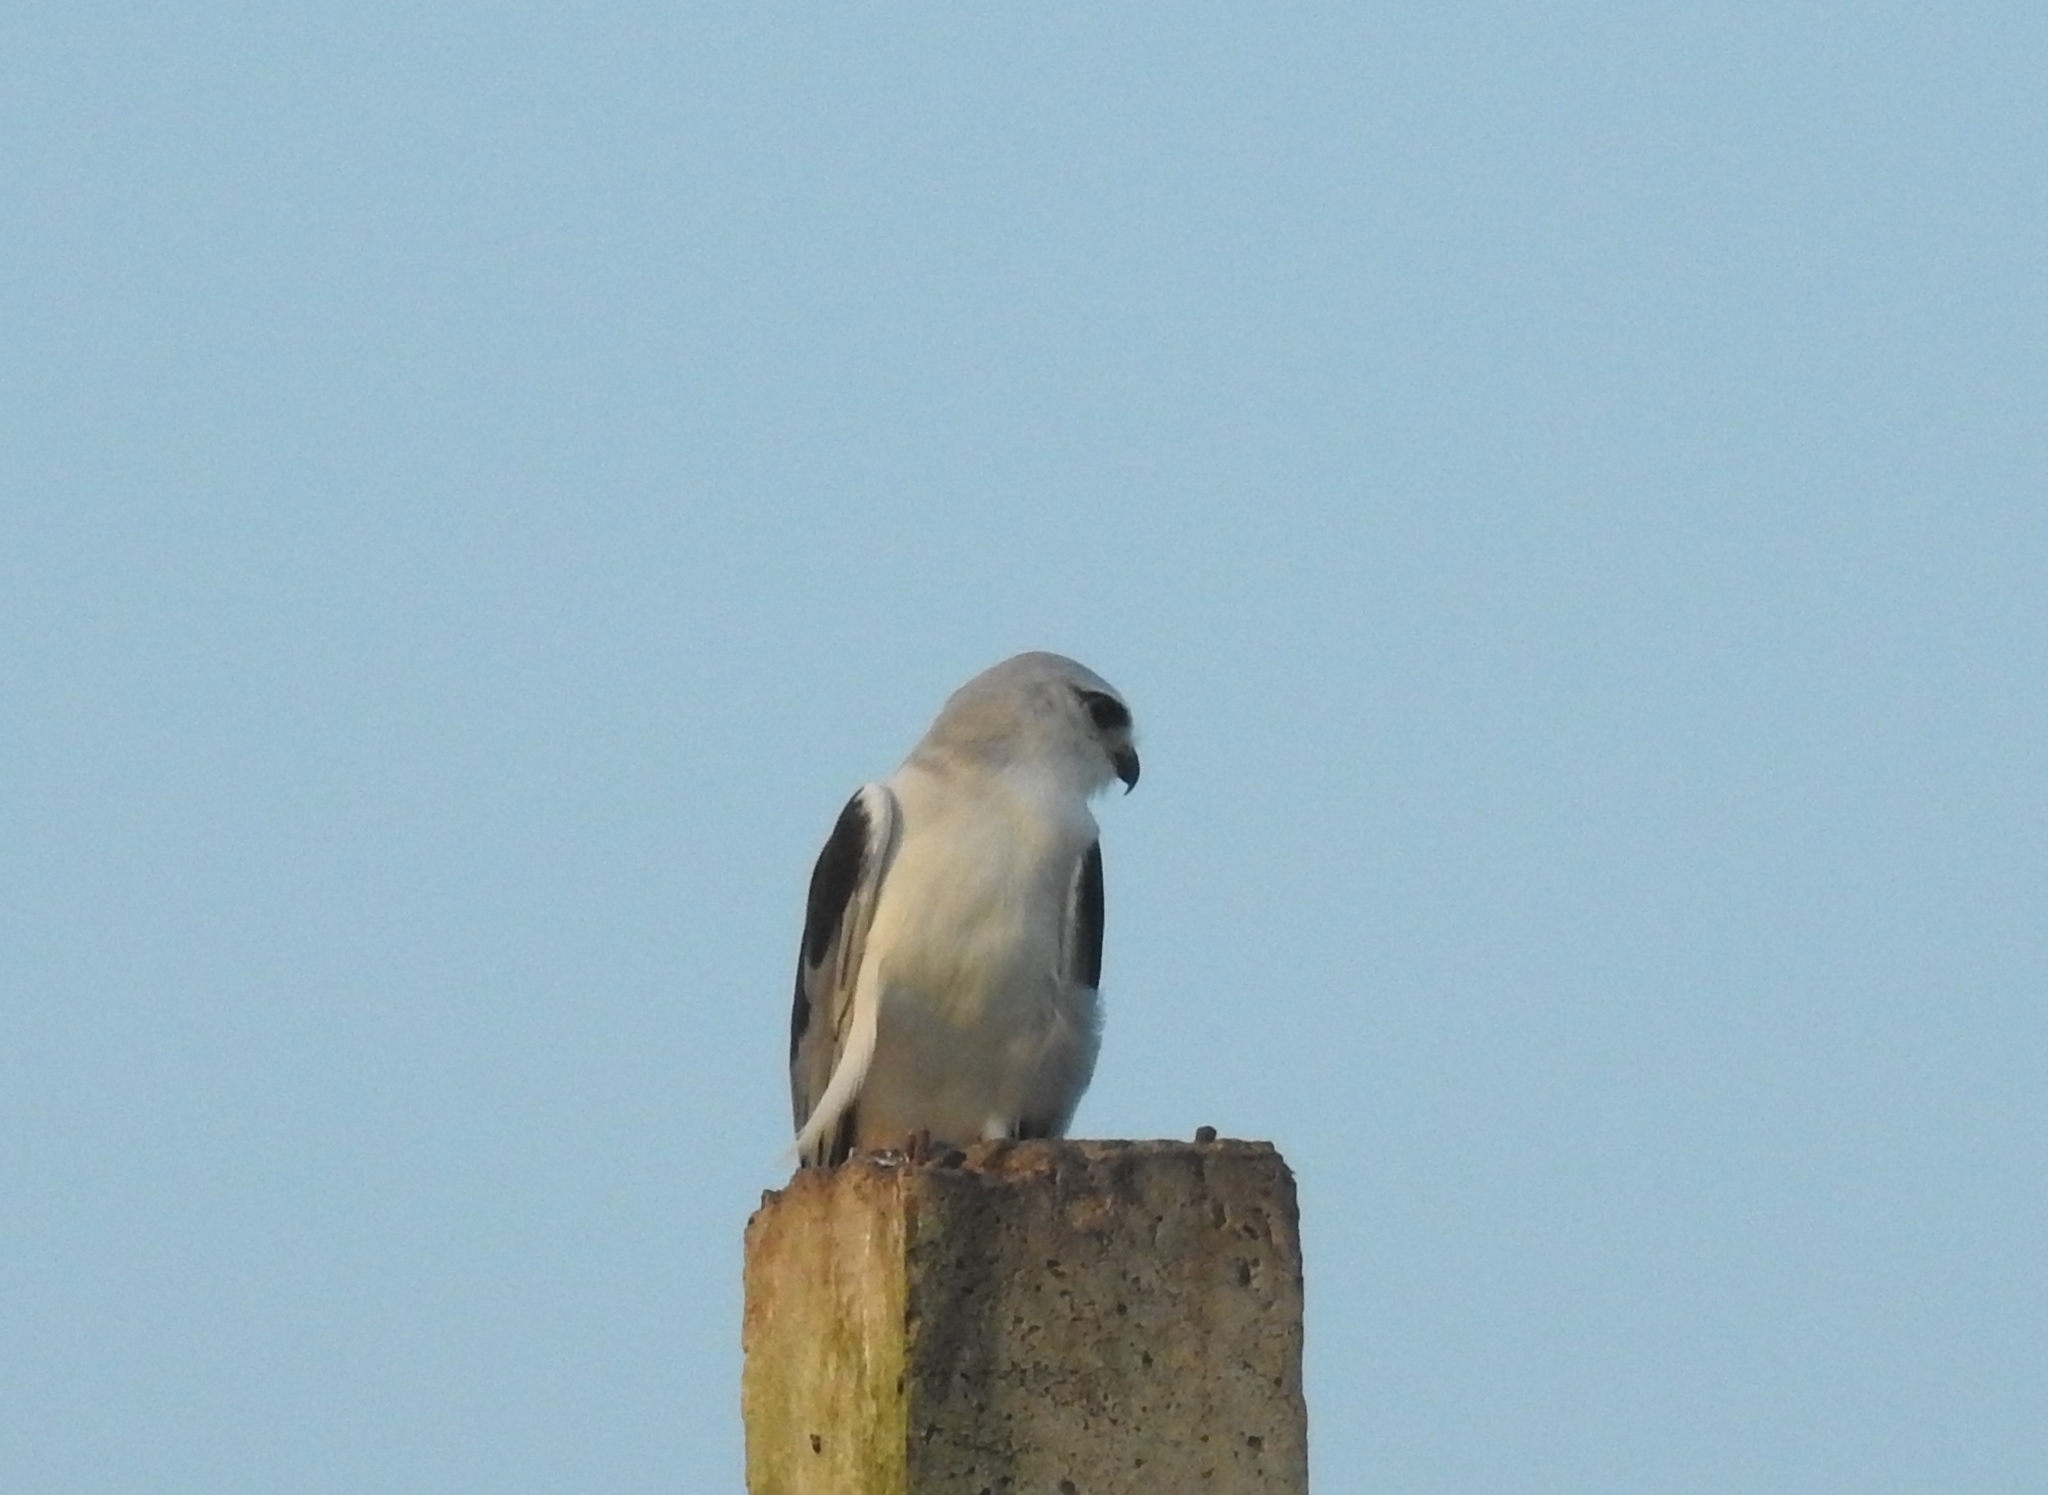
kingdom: Animalia
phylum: Chordata
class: Aves
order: Accipitriformes
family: Accipitridae
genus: Elanus
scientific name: Elanus caeruleus
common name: Black-winged kite
